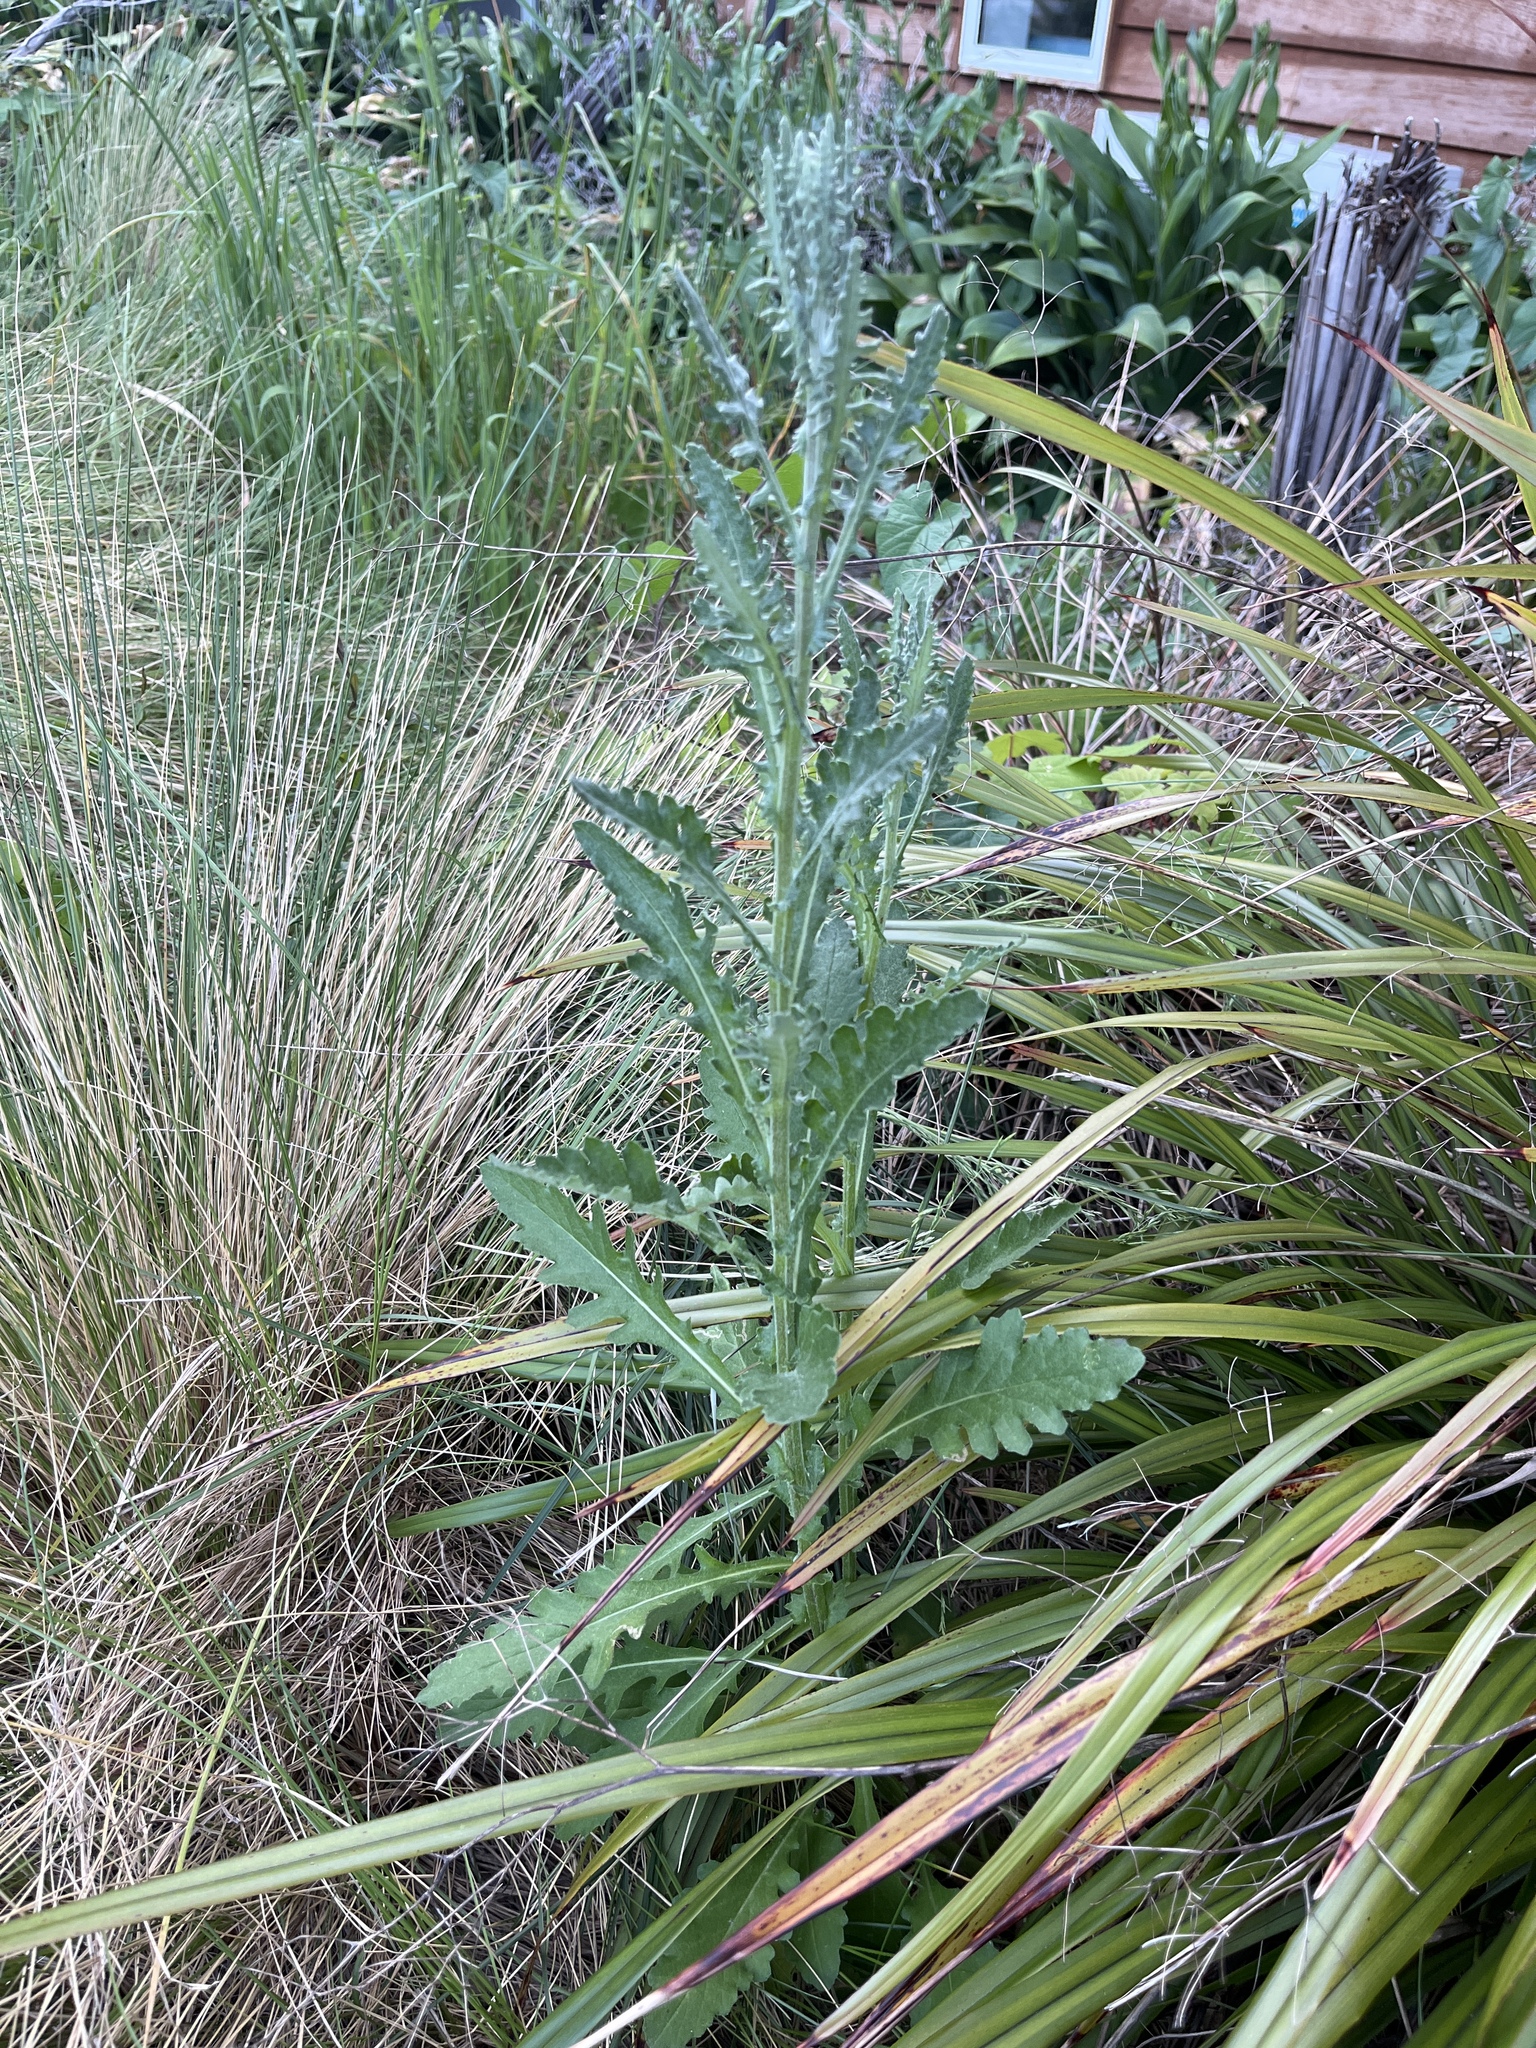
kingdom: Plantae
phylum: Tracheophyta
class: Magnoliopsida
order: Asterales
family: Asteraceae
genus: Senecio
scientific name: Senecio glomeratus
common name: Cutleaf burnweed
